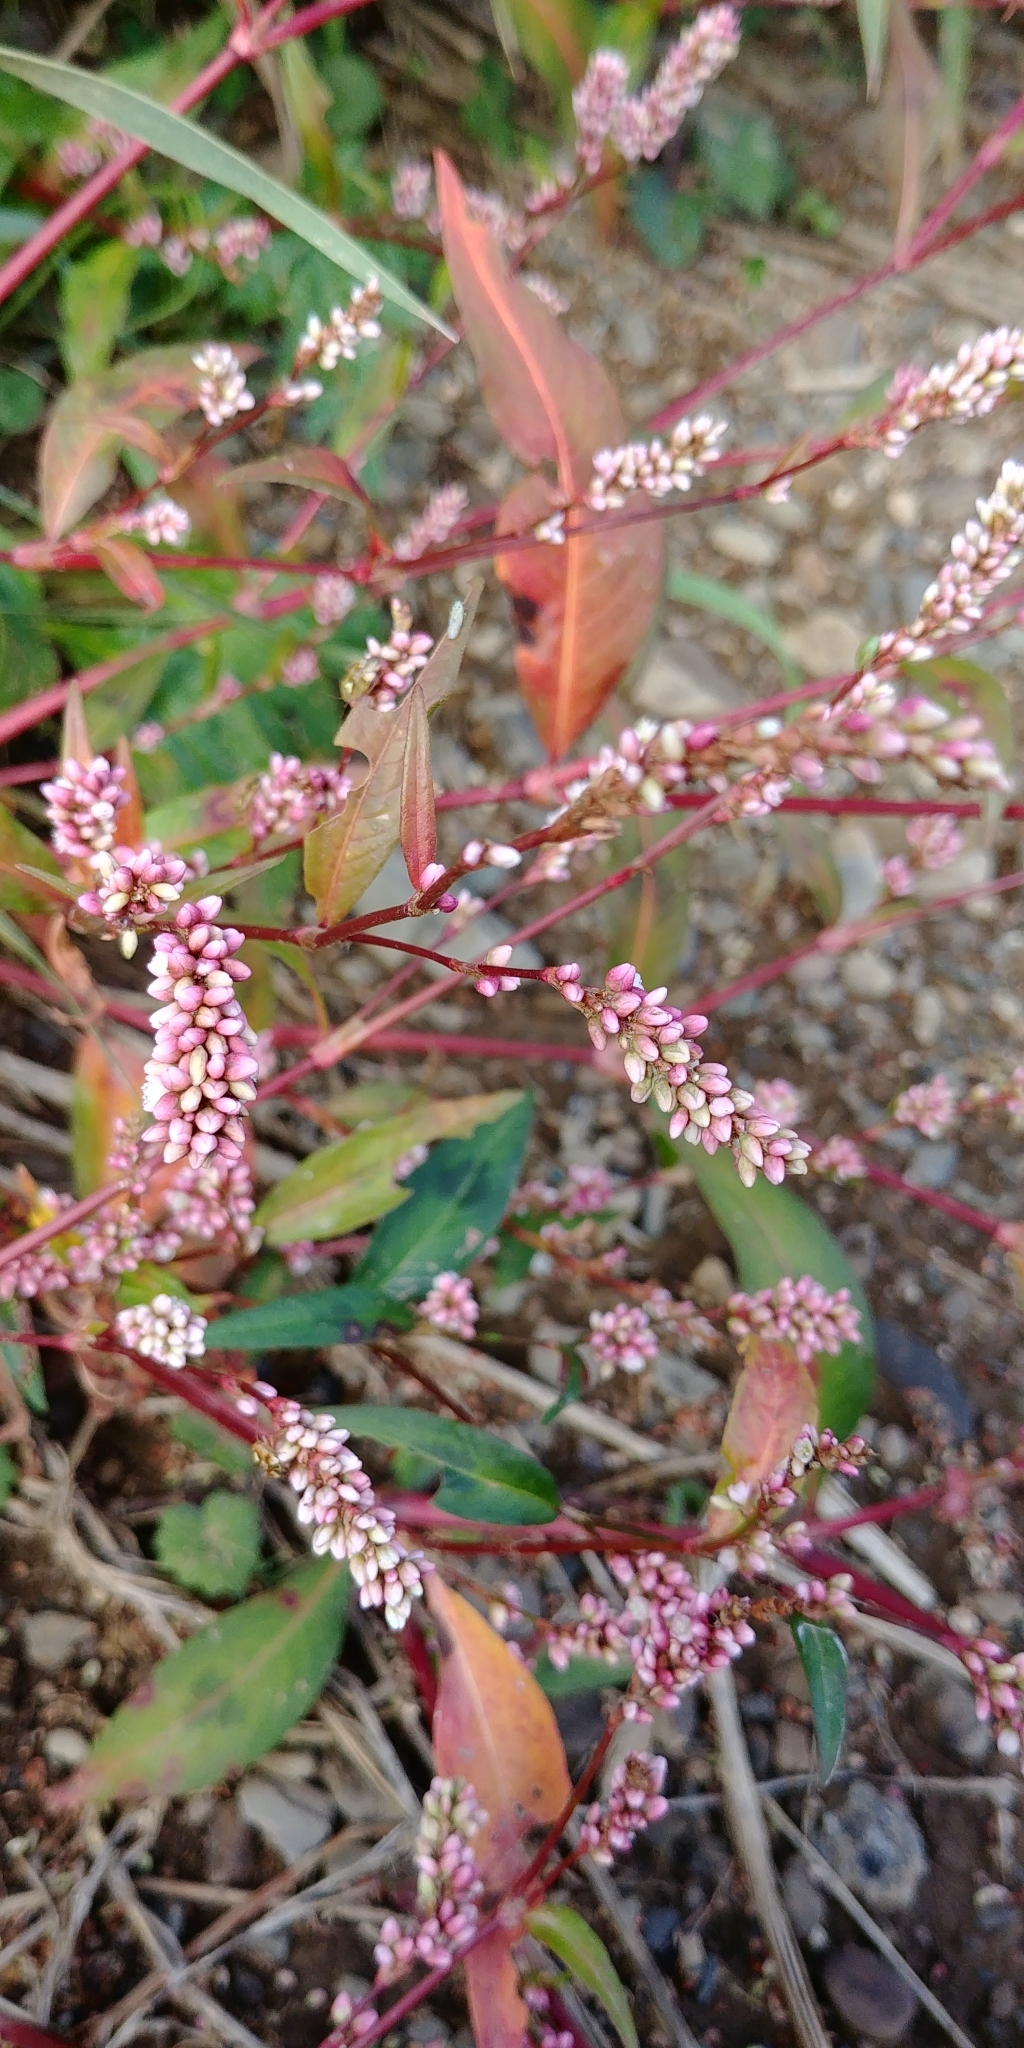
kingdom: Plantae
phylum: Tracheophyta
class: Magnoliopsida
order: Caryophyllales
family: Polygonaceae
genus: Persicaria
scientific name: Persicaria maculosa
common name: Redshank
